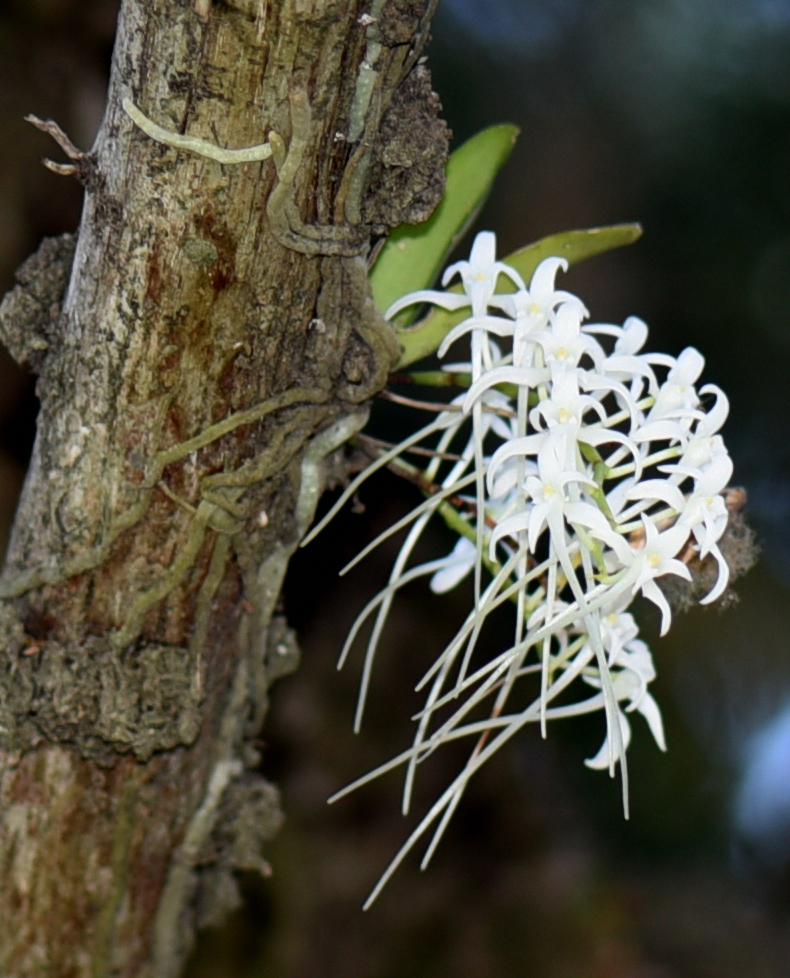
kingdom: Plantae
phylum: Tracheophyta
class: Liliopsida
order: Asparagales
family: Orchidaceae
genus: Mystacidium
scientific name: Mystacidium capense
